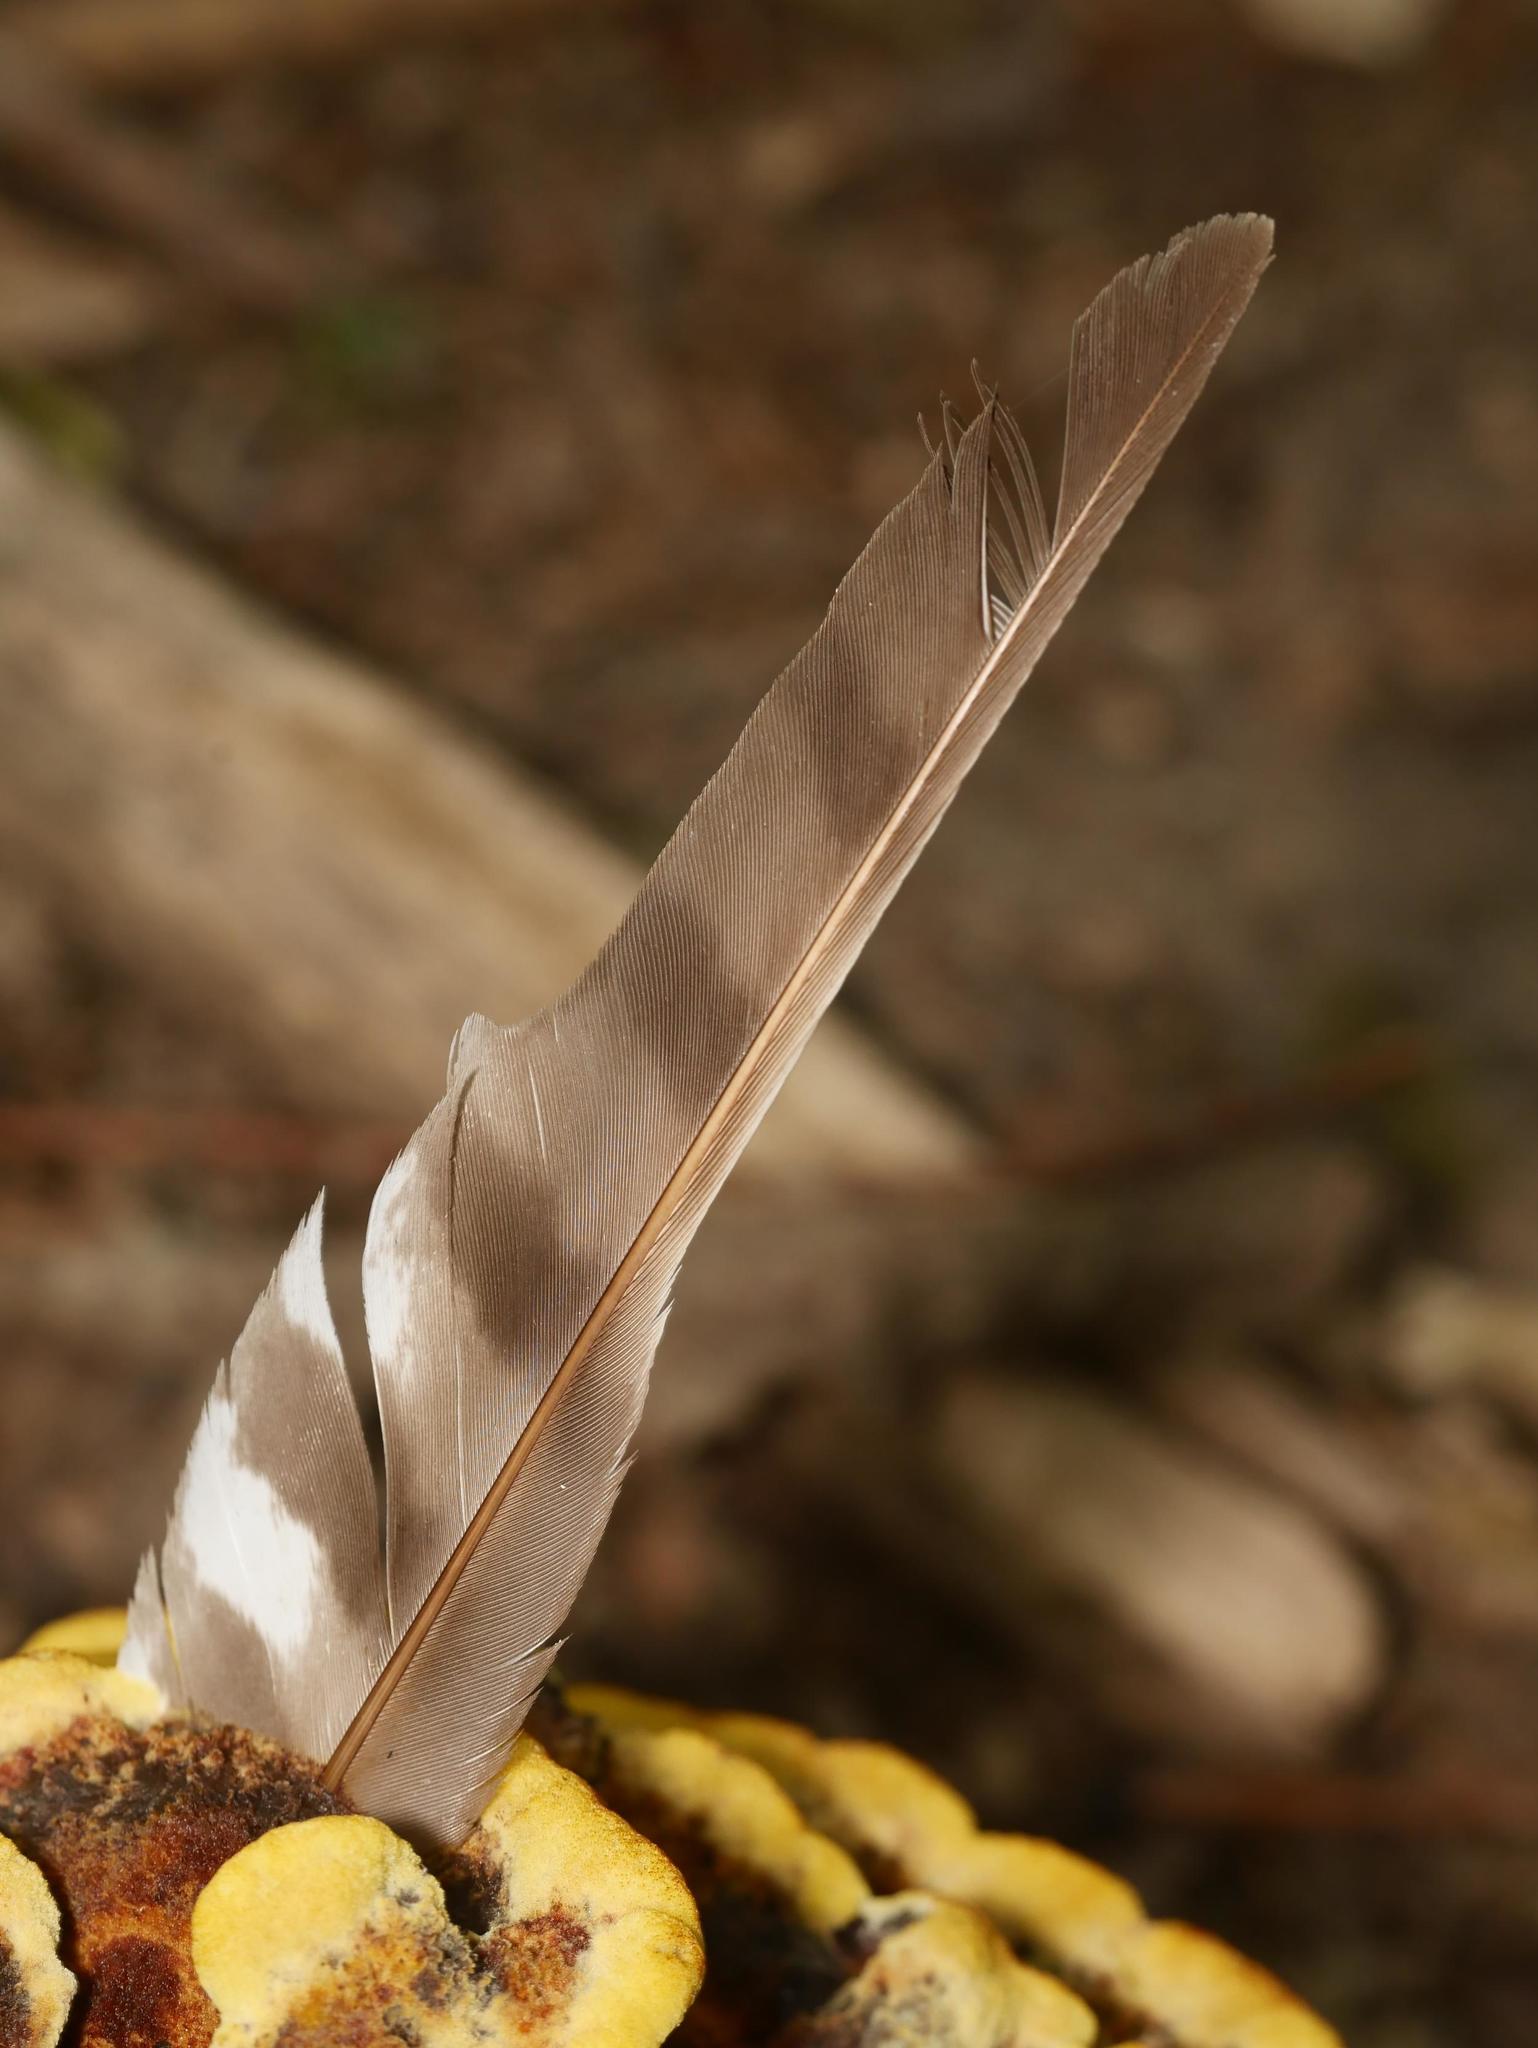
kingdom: Animalia
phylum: Chordata
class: Aves
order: Accipitriformes
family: Accipitridae
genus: Accipiter
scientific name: Accipiter nisus
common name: Eurasian sparrowhawk
